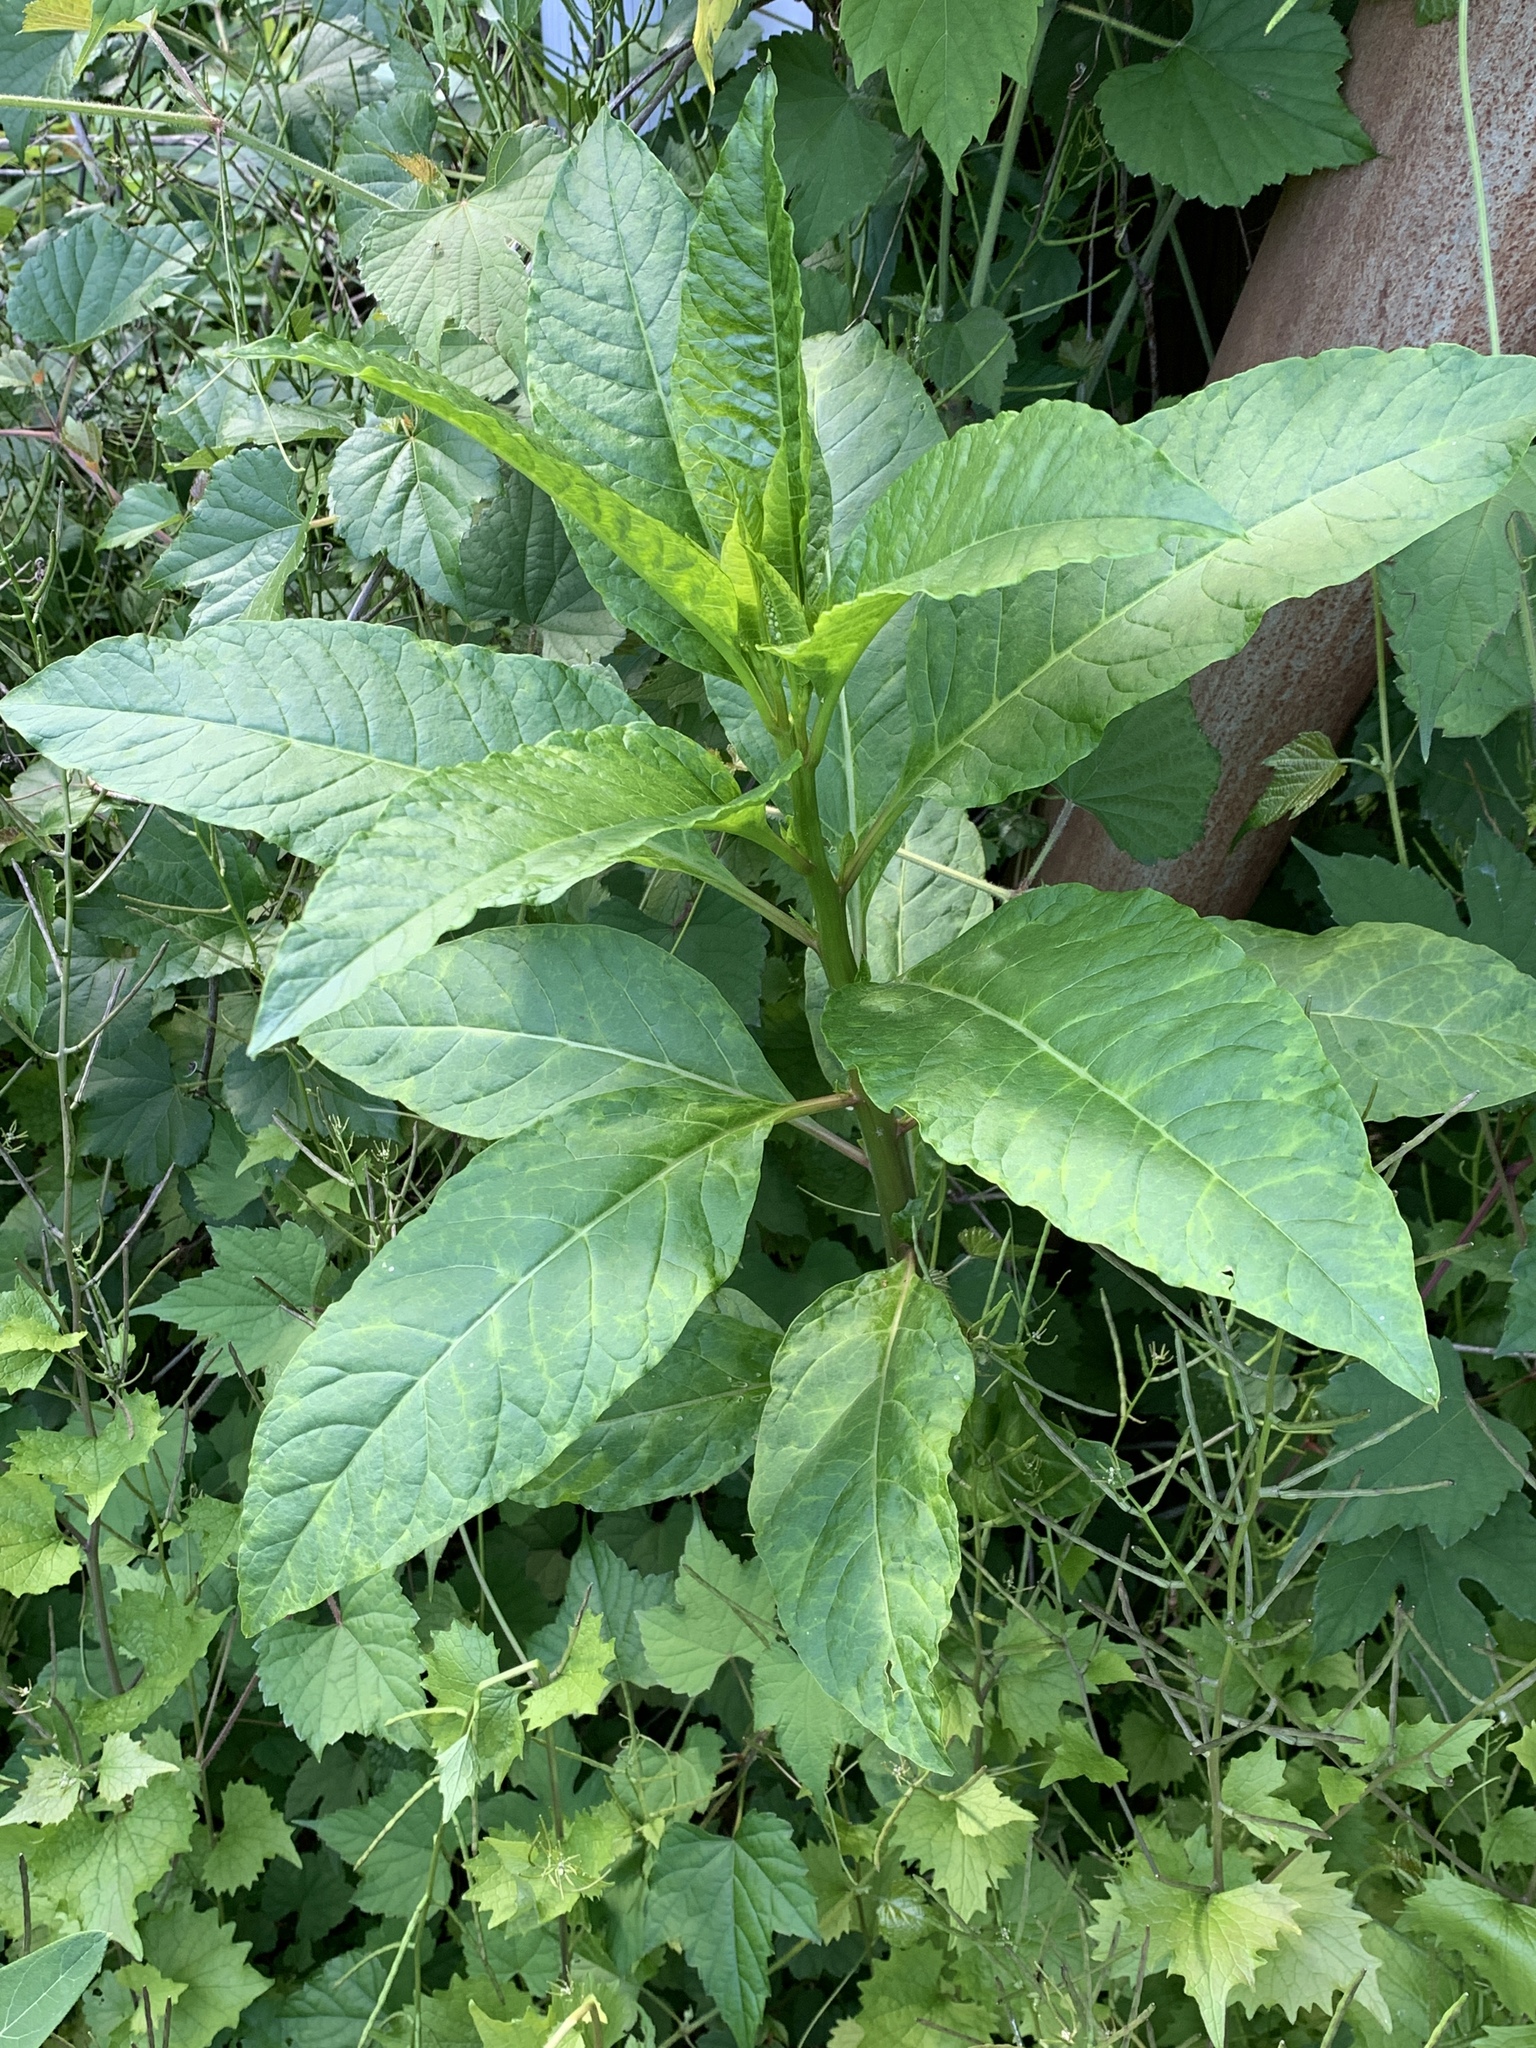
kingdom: Plantae
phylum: Tracheophyta
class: Magnoliopsida
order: Caryophyllales
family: Phytolaccaceae
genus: Phytolacca
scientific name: Phytolacca americana
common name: American pokeweed
